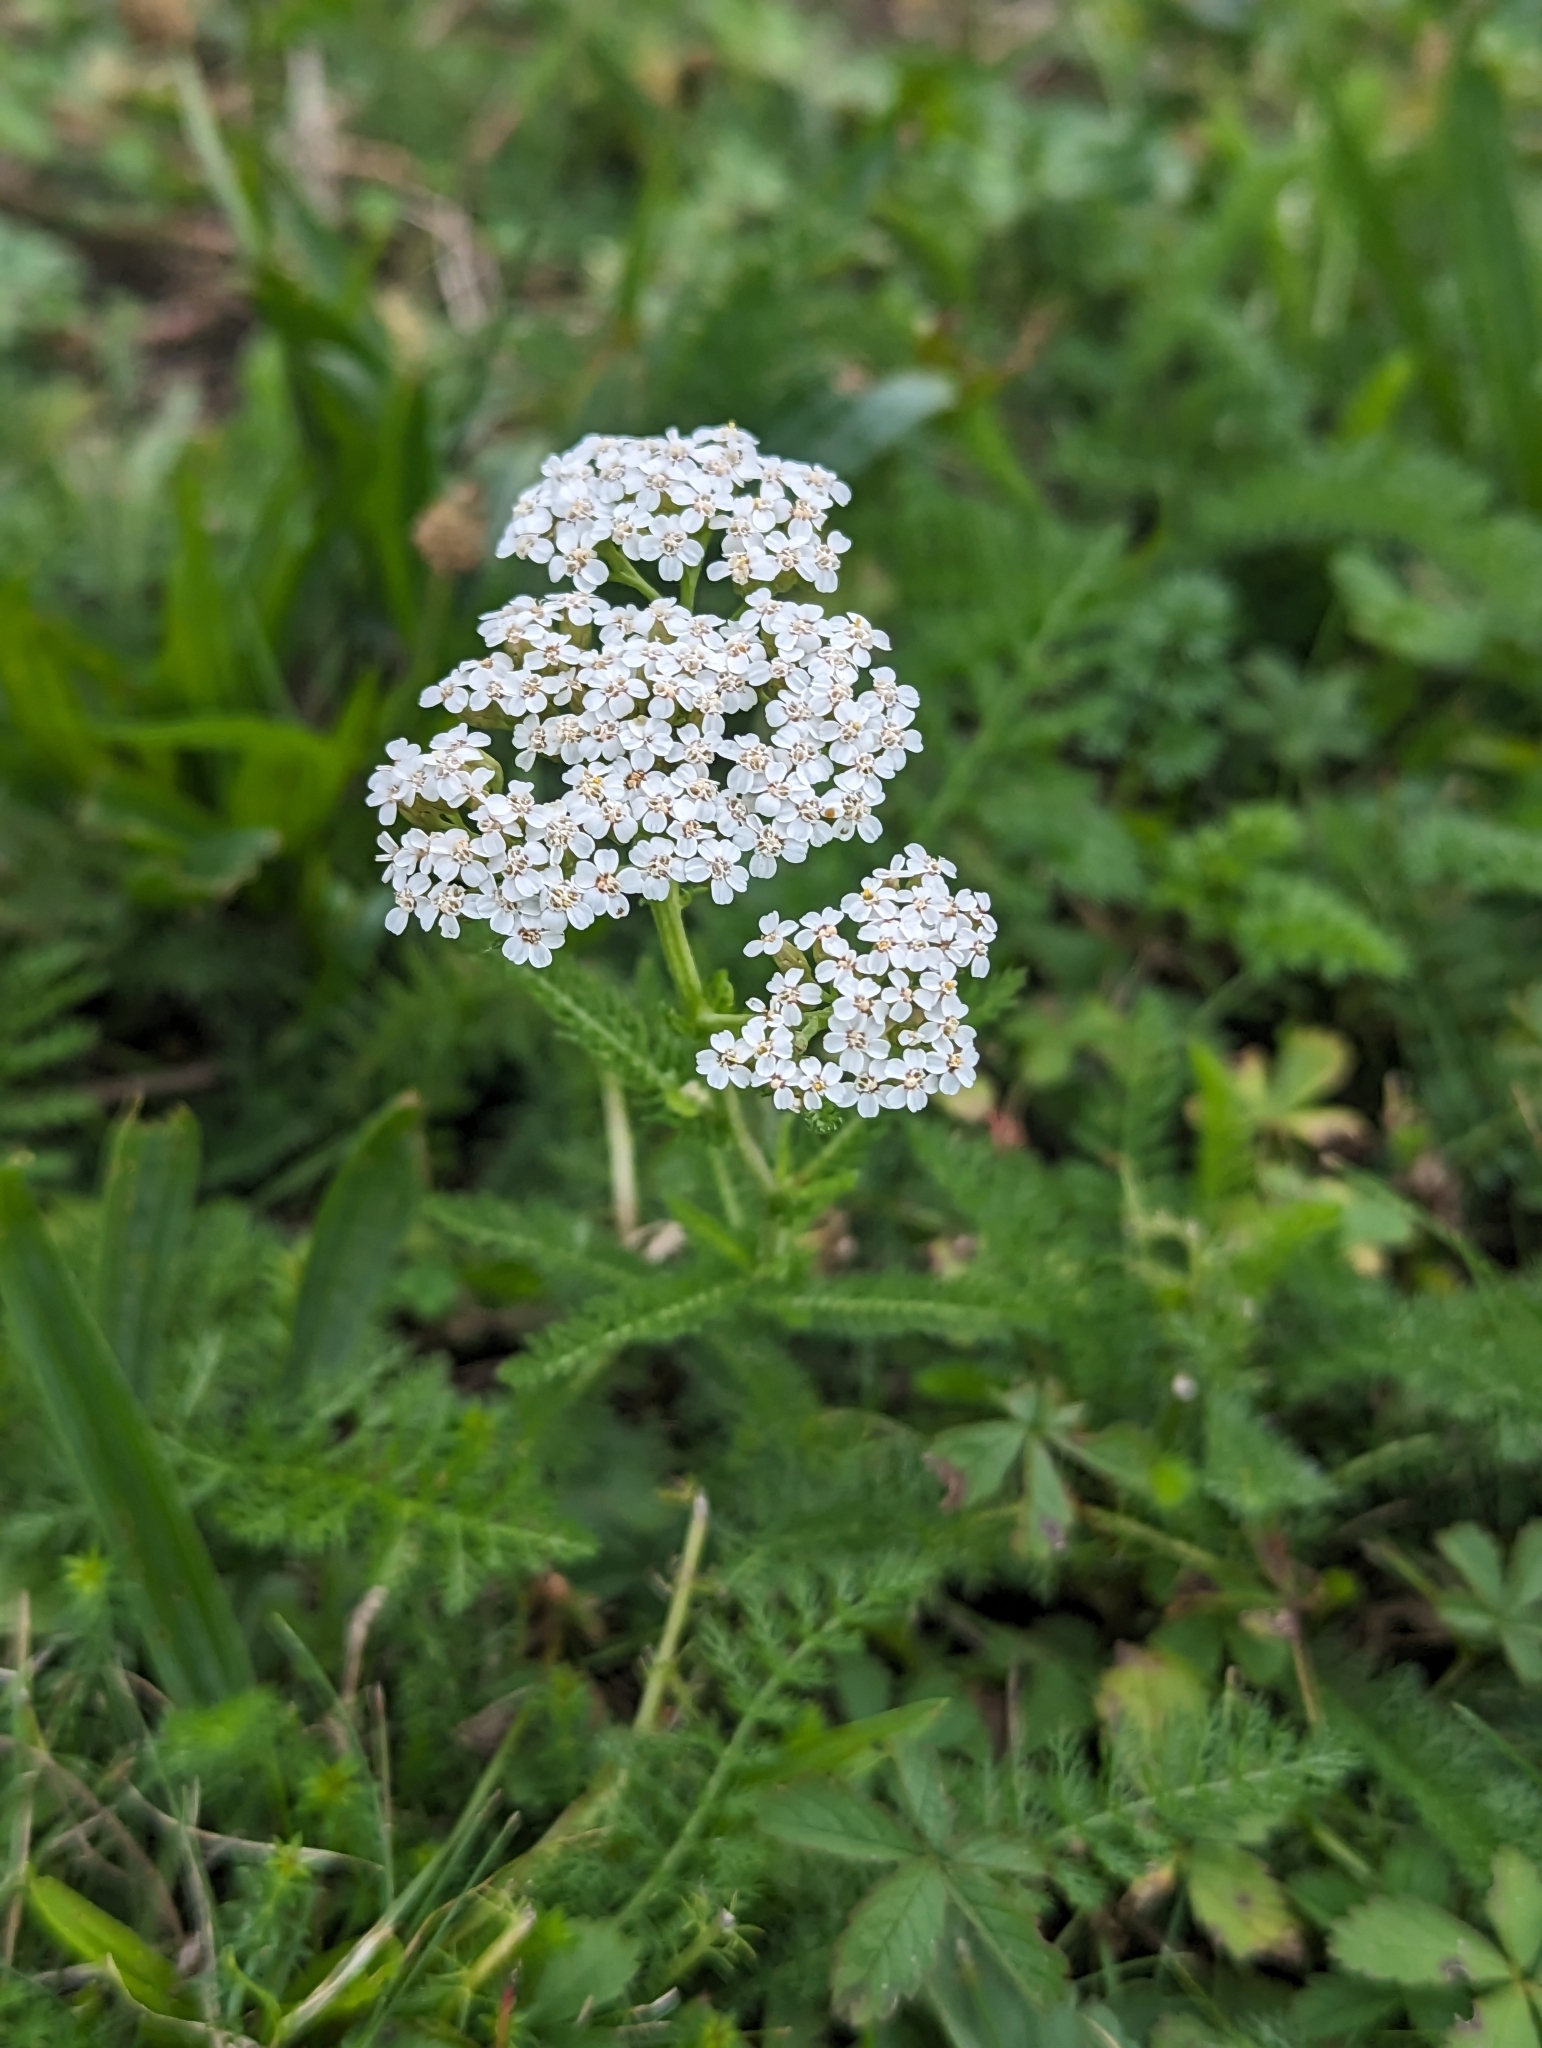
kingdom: Plantae
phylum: Tracheophyta
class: Magnoliopsida
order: Asterales
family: Asteraceae
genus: Achillea
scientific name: Achillea millefolium
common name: Yarrow
